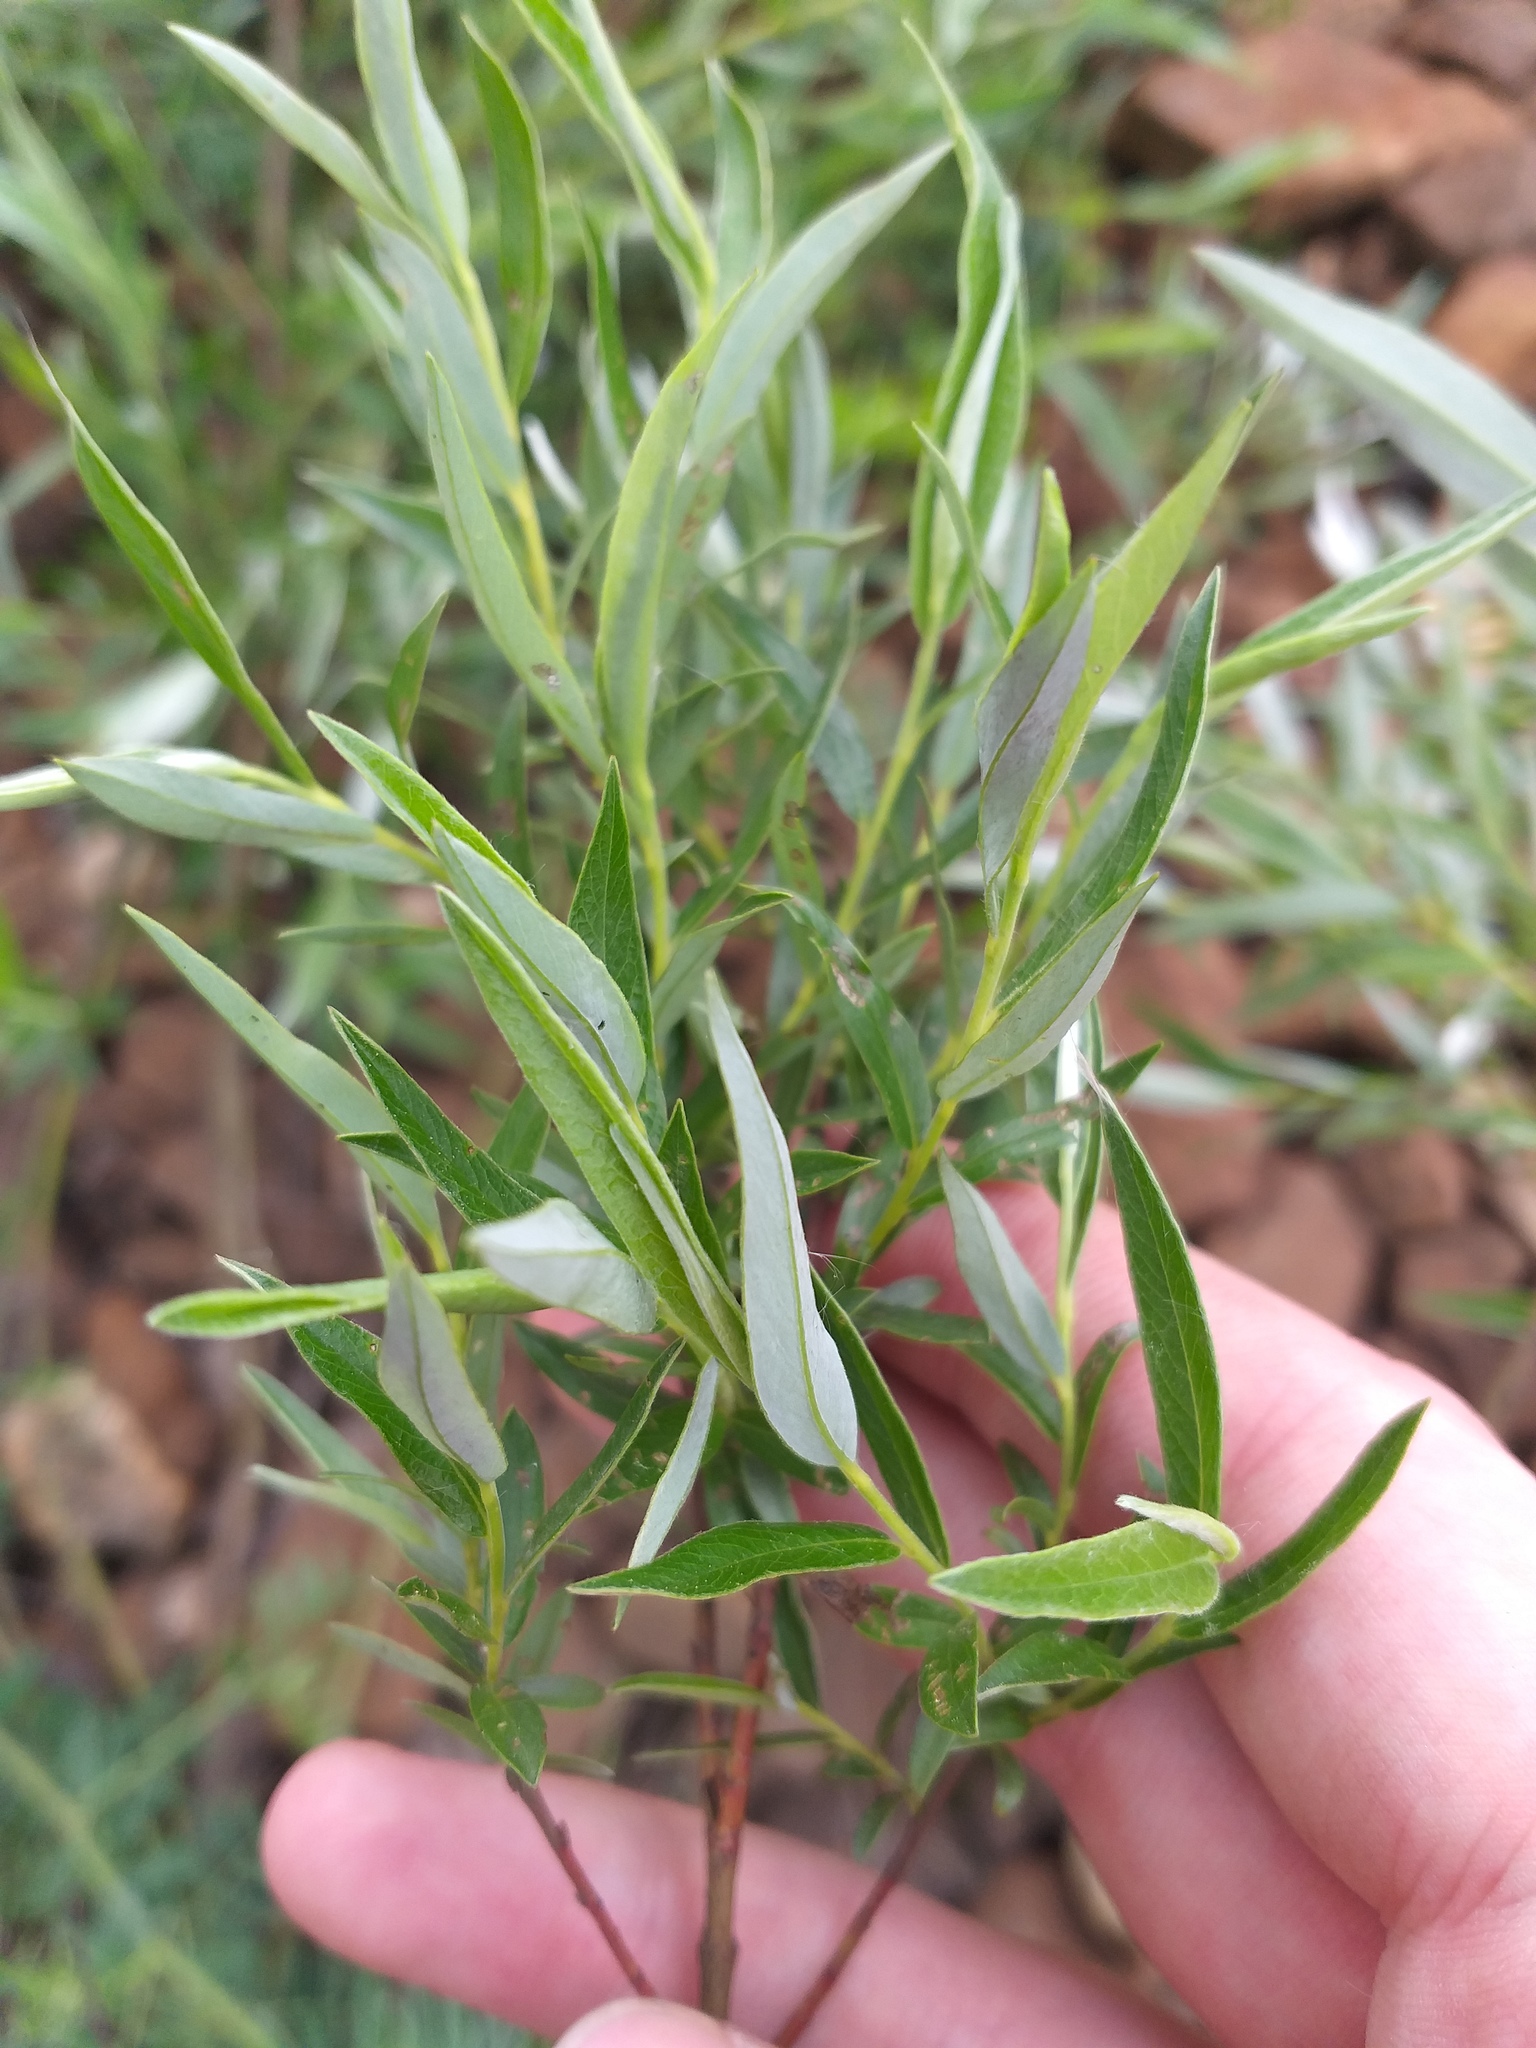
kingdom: Plantae
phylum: Tracheophyta
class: Magnoliopsida
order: Malpighiales
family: Salicaceae
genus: Salix
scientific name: Salix rosmarinifolia
